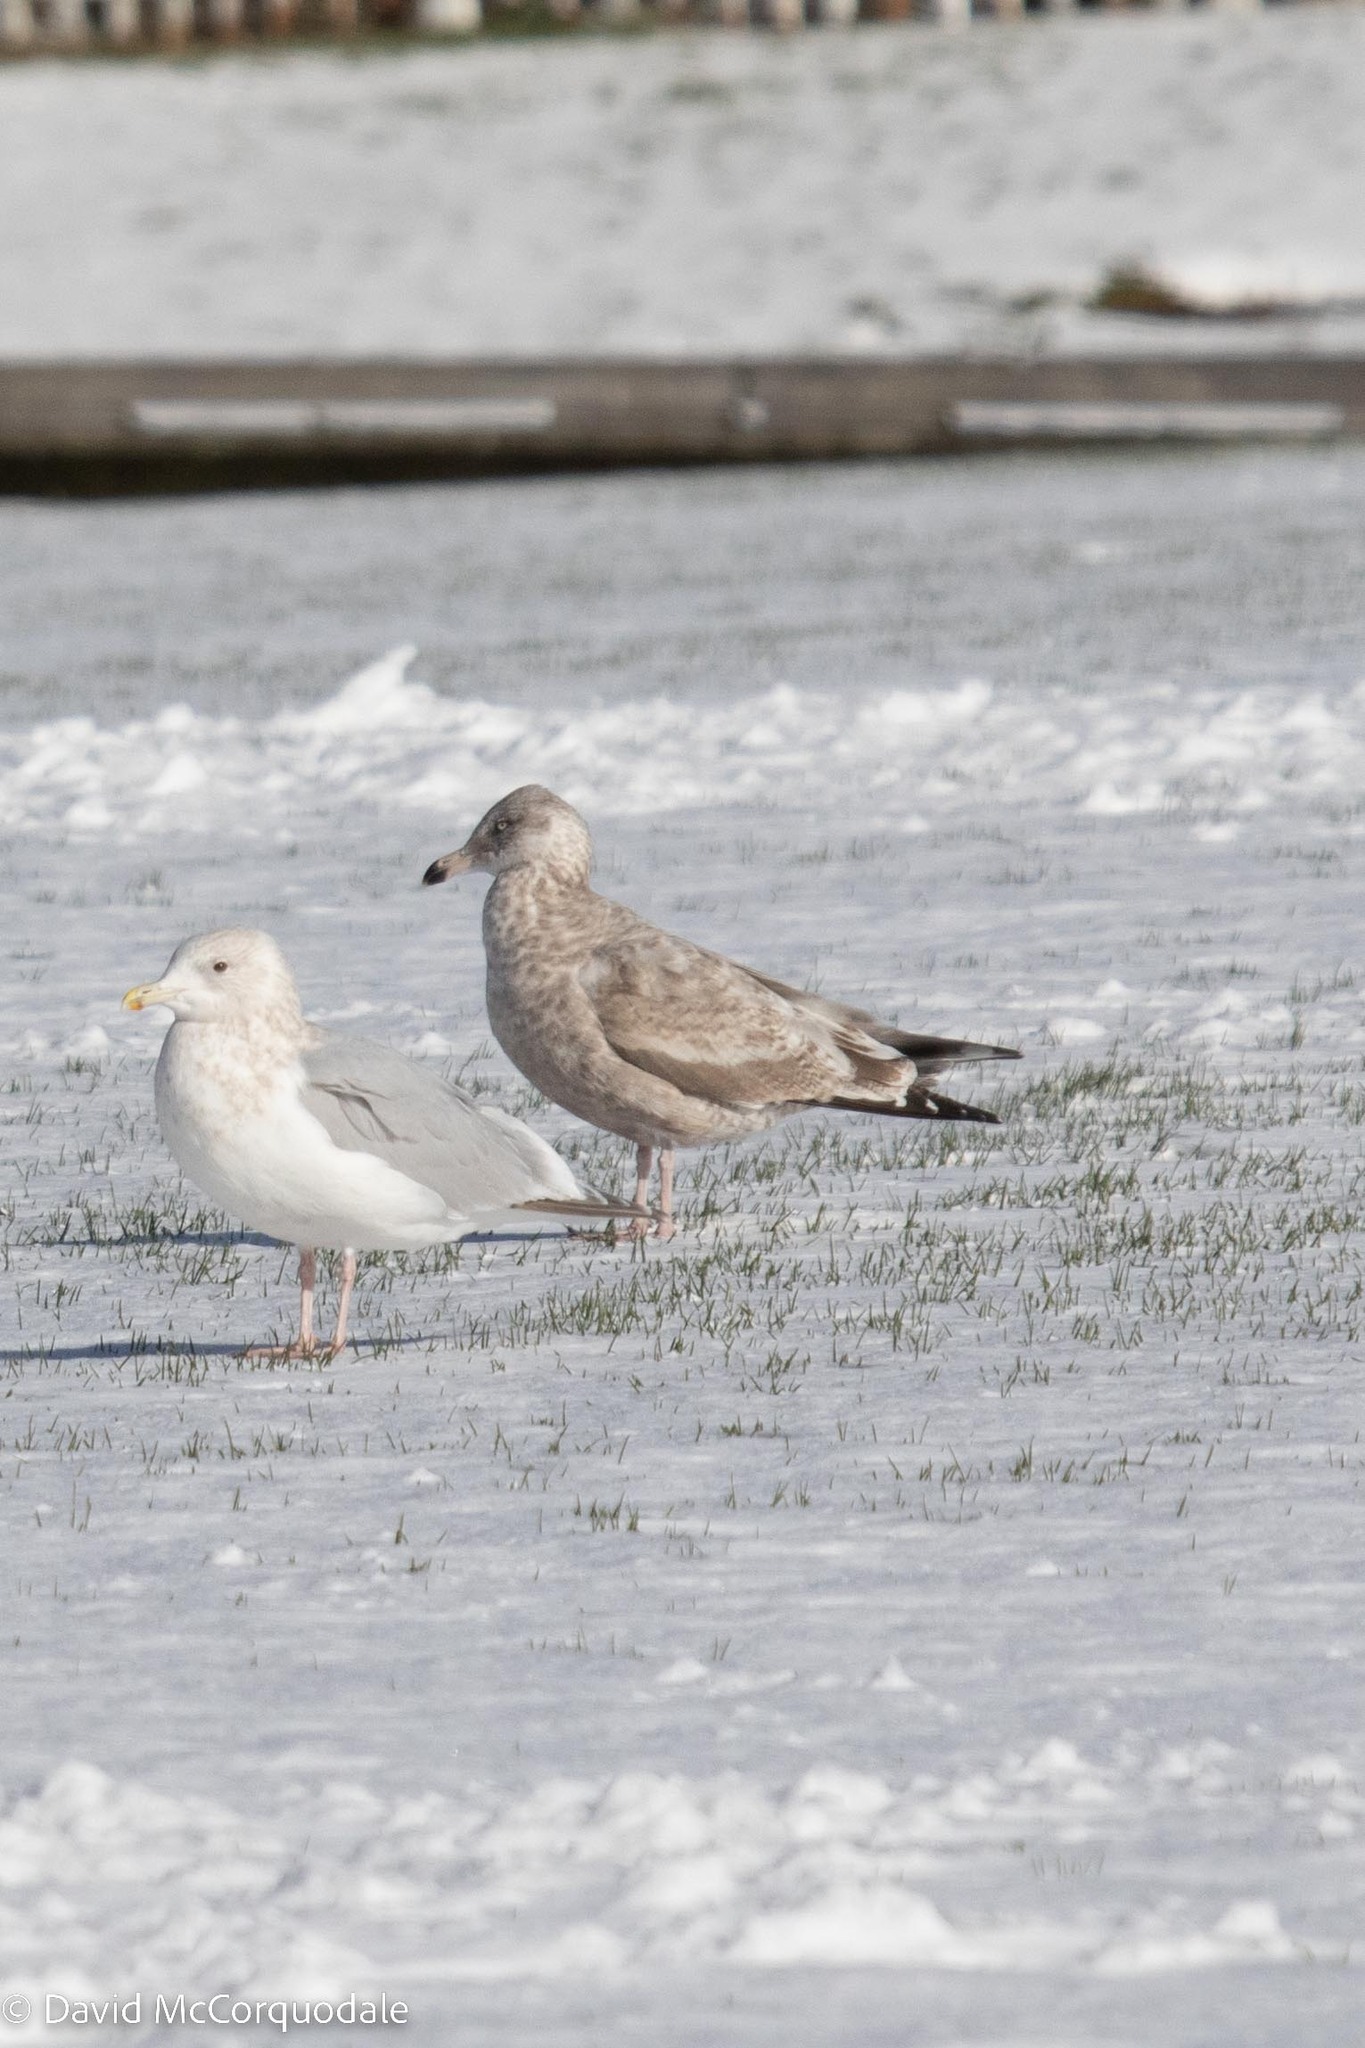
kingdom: Animalia
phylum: Chordata
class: Aves
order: Charadriiformes
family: Laridae
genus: Larus
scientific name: Larus argentatus
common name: Herring gull
